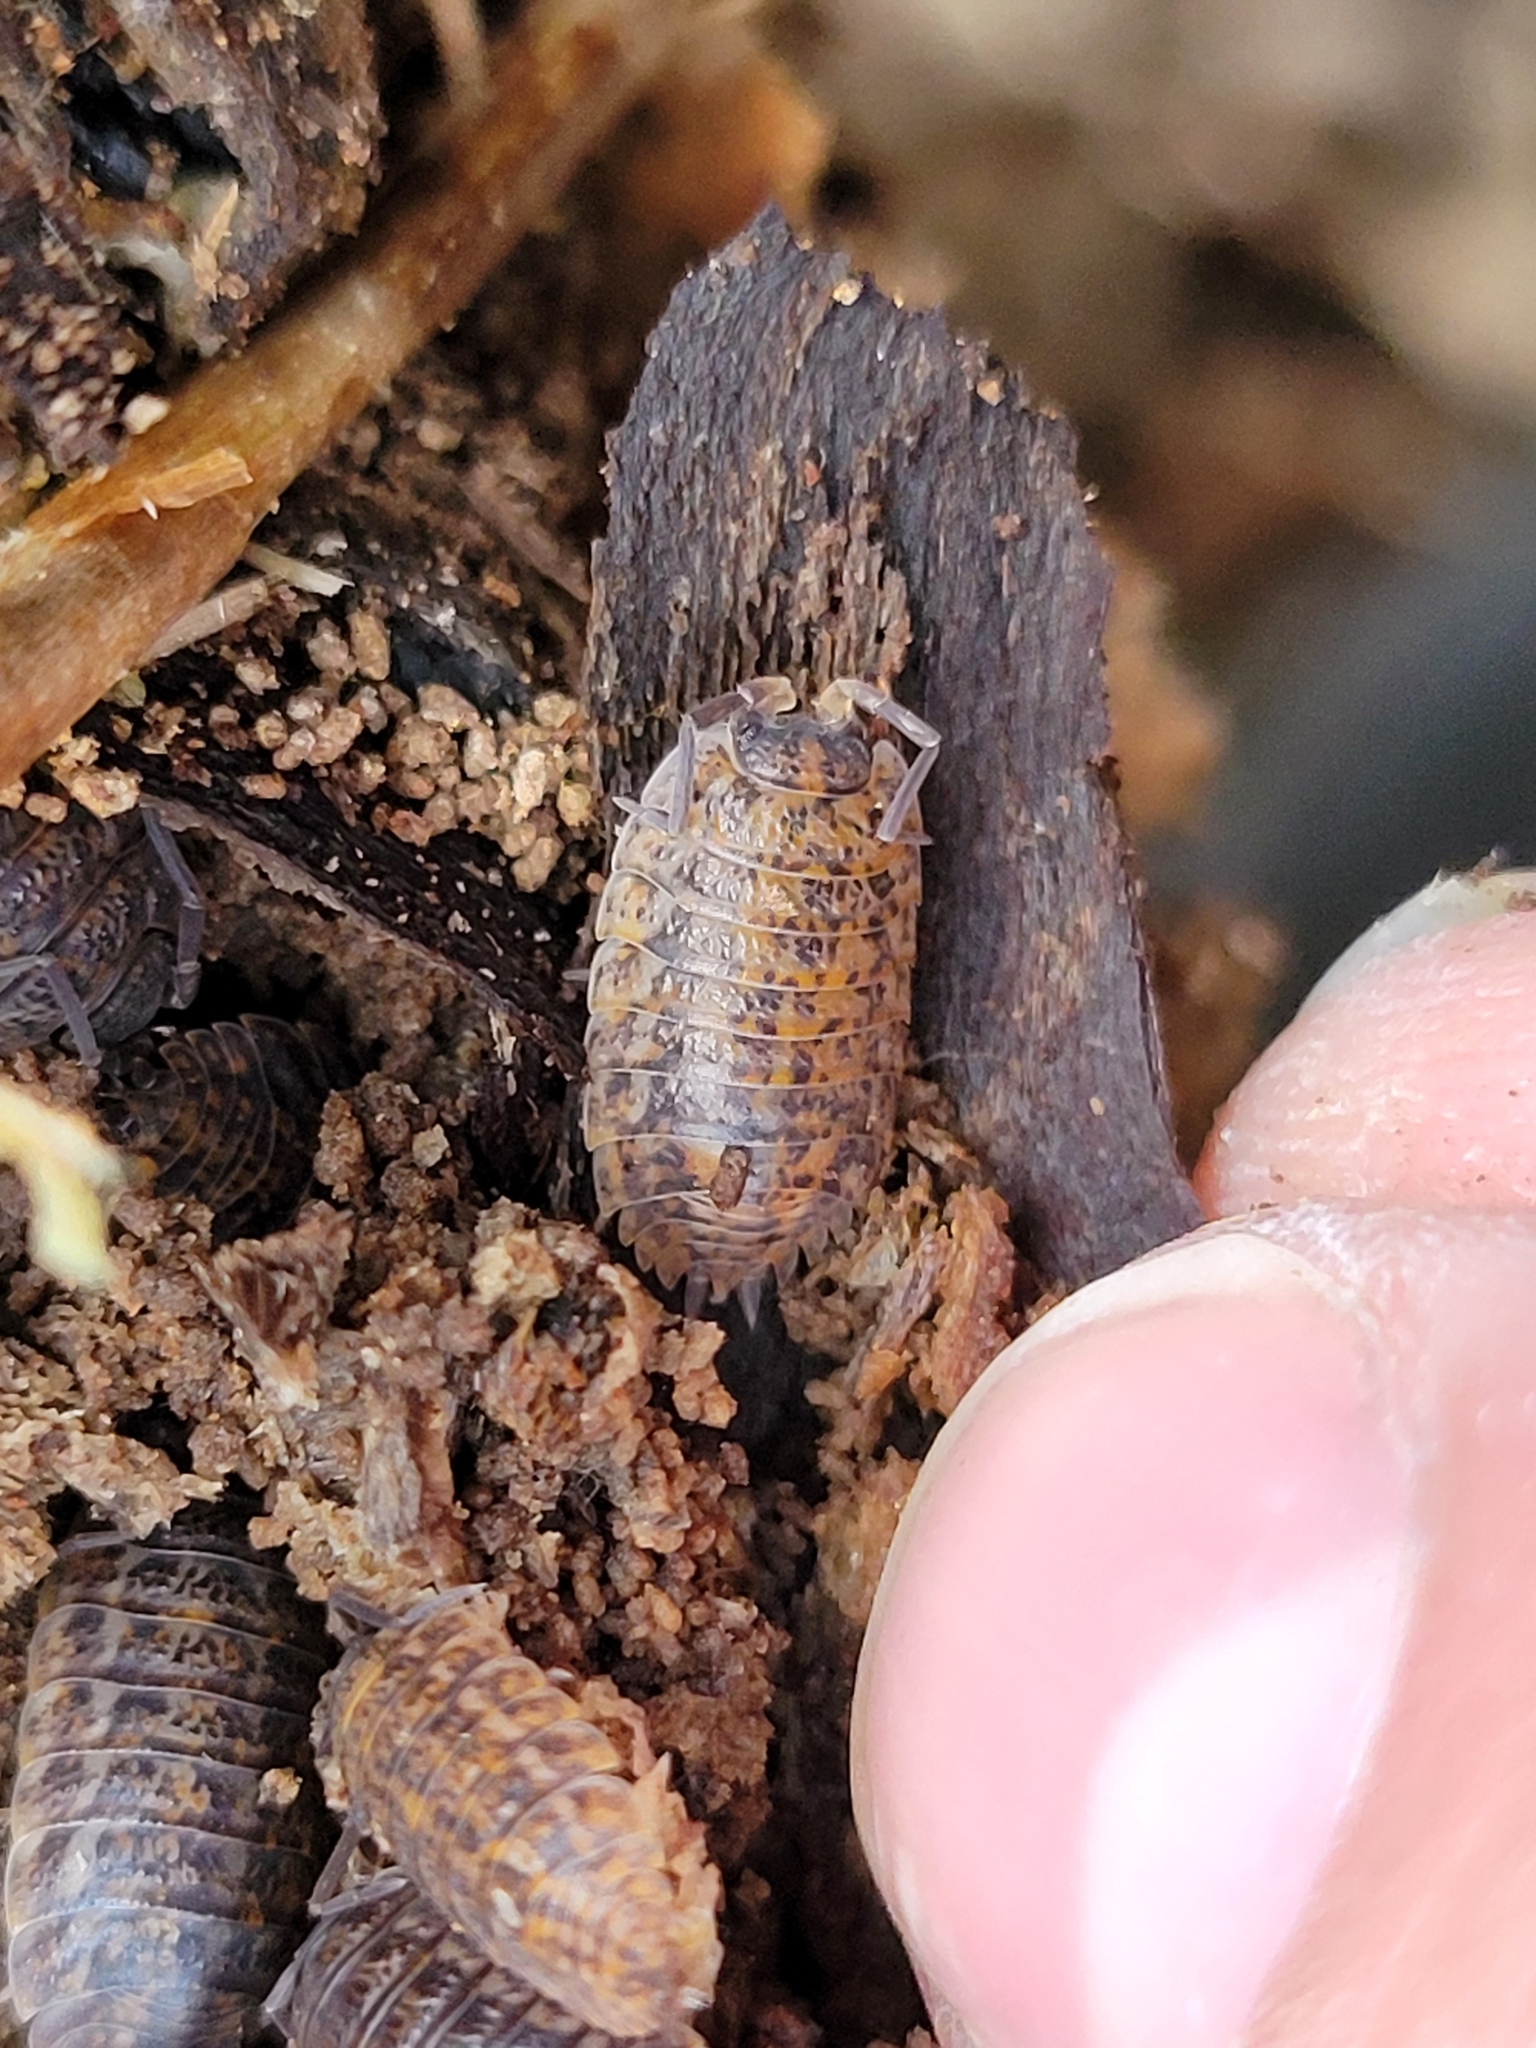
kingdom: Animalia
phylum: Arthropoda
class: Malacostraca
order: Isopoda
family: Trachelipodidae
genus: Trachelipus
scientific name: Trachelipus rathkii
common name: Isopod
